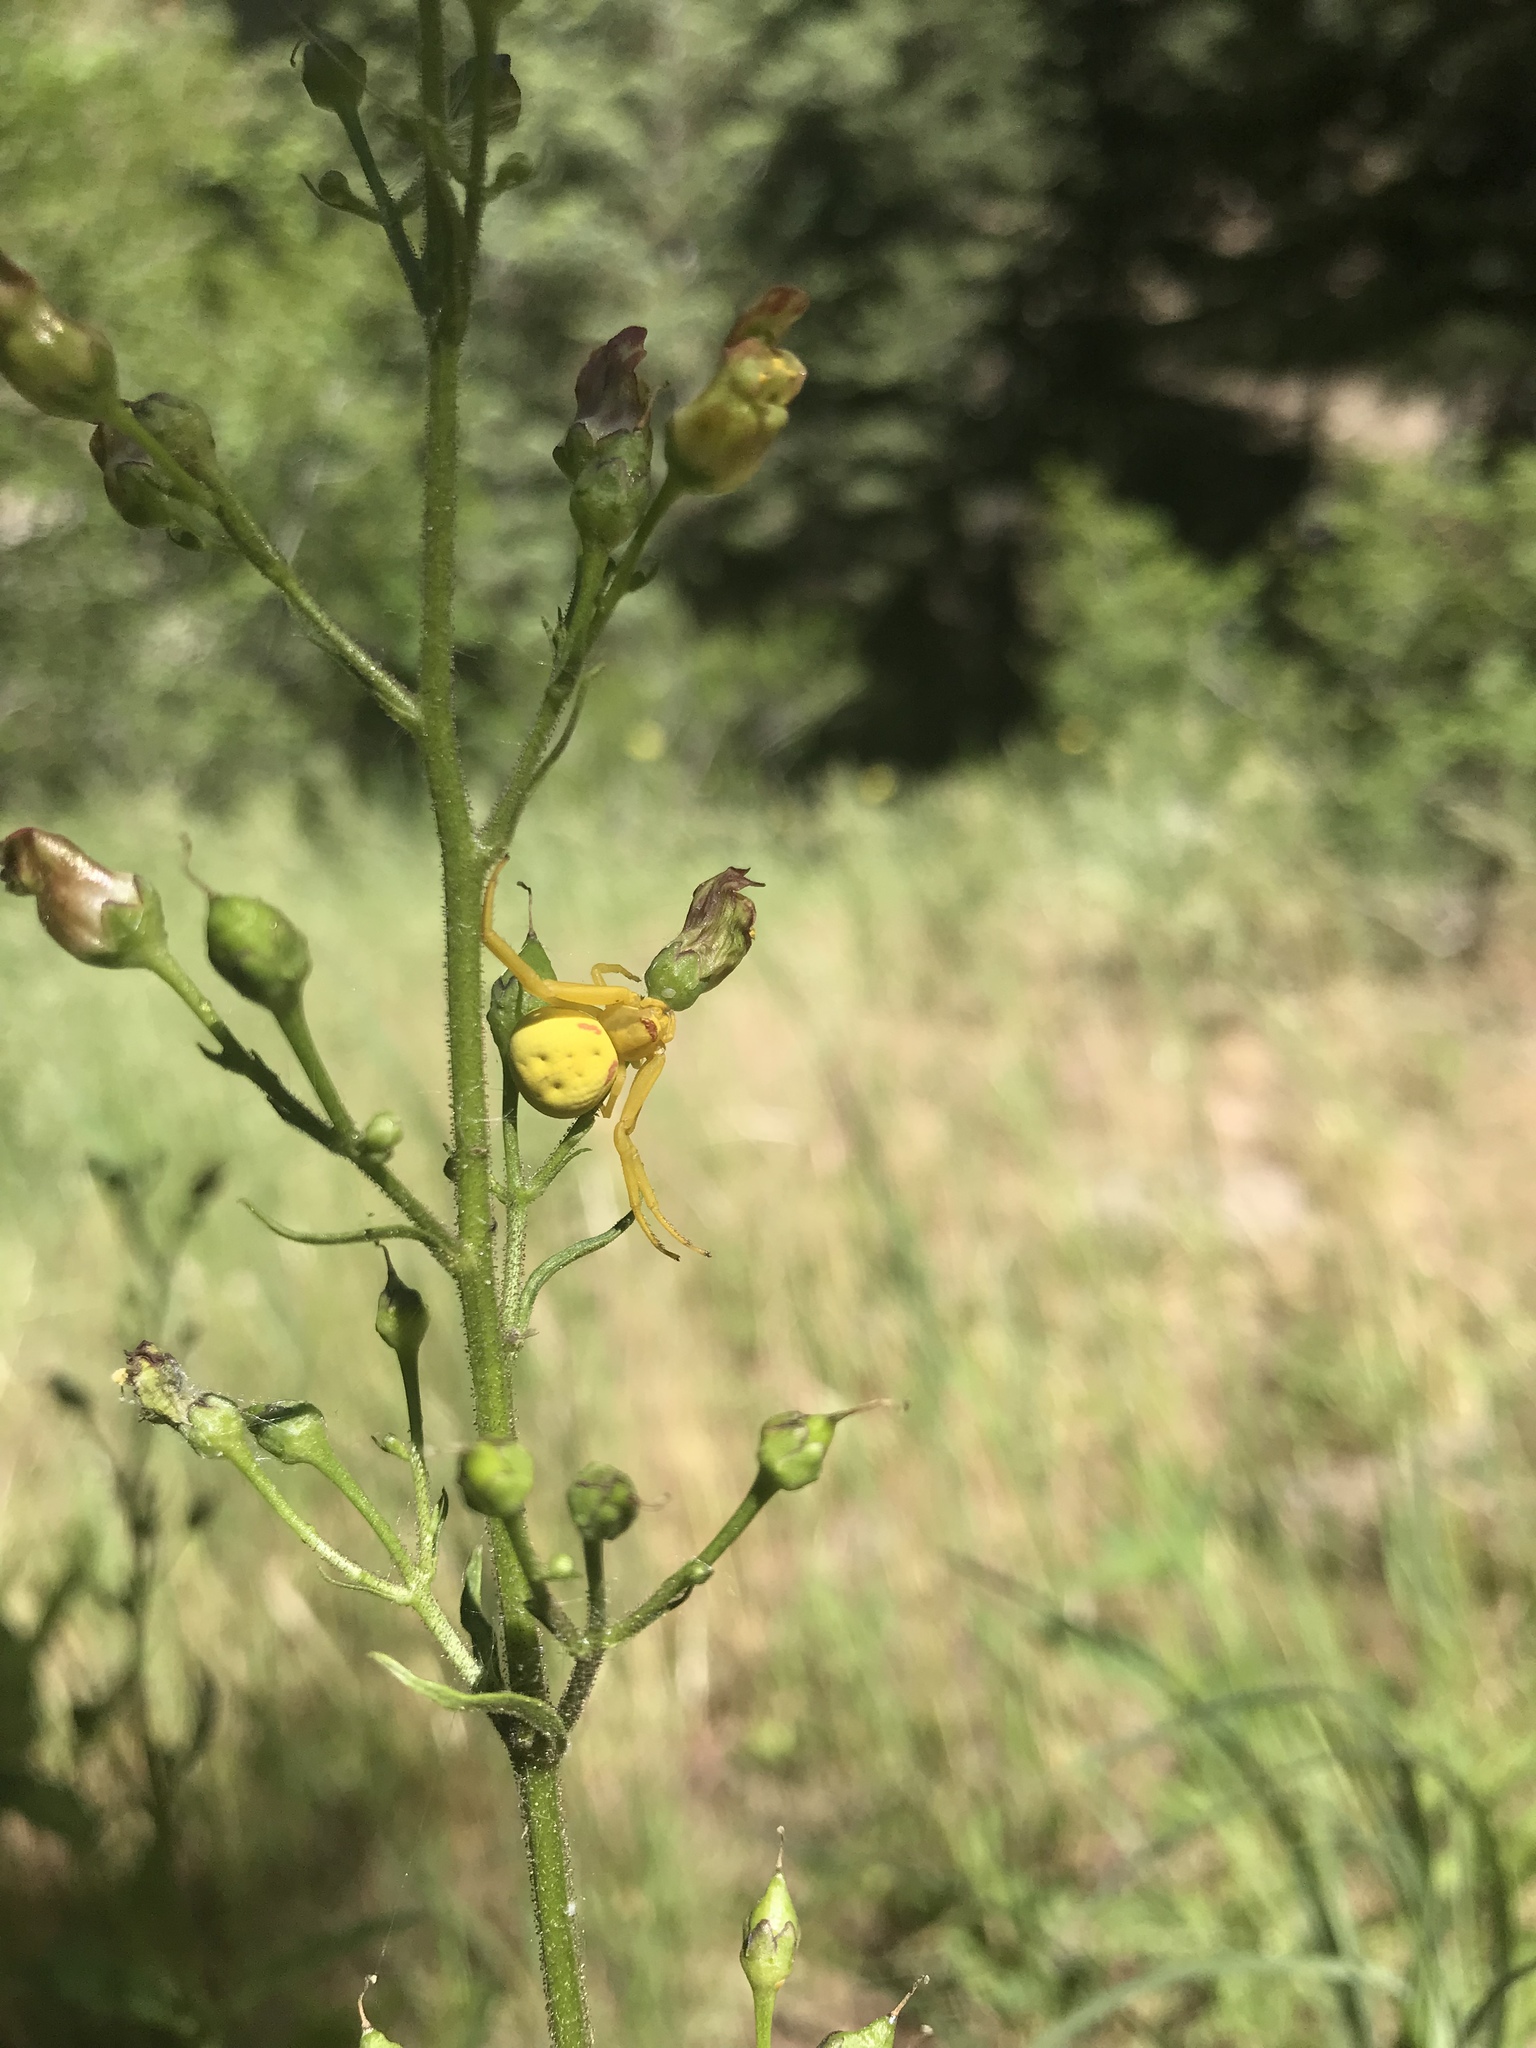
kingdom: Animalia
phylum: Arthropoda
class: Arachnida
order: Araneae
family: Thomisidae
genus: Misumena
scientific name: Misumena vatia
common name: Goldenrod crab spider
